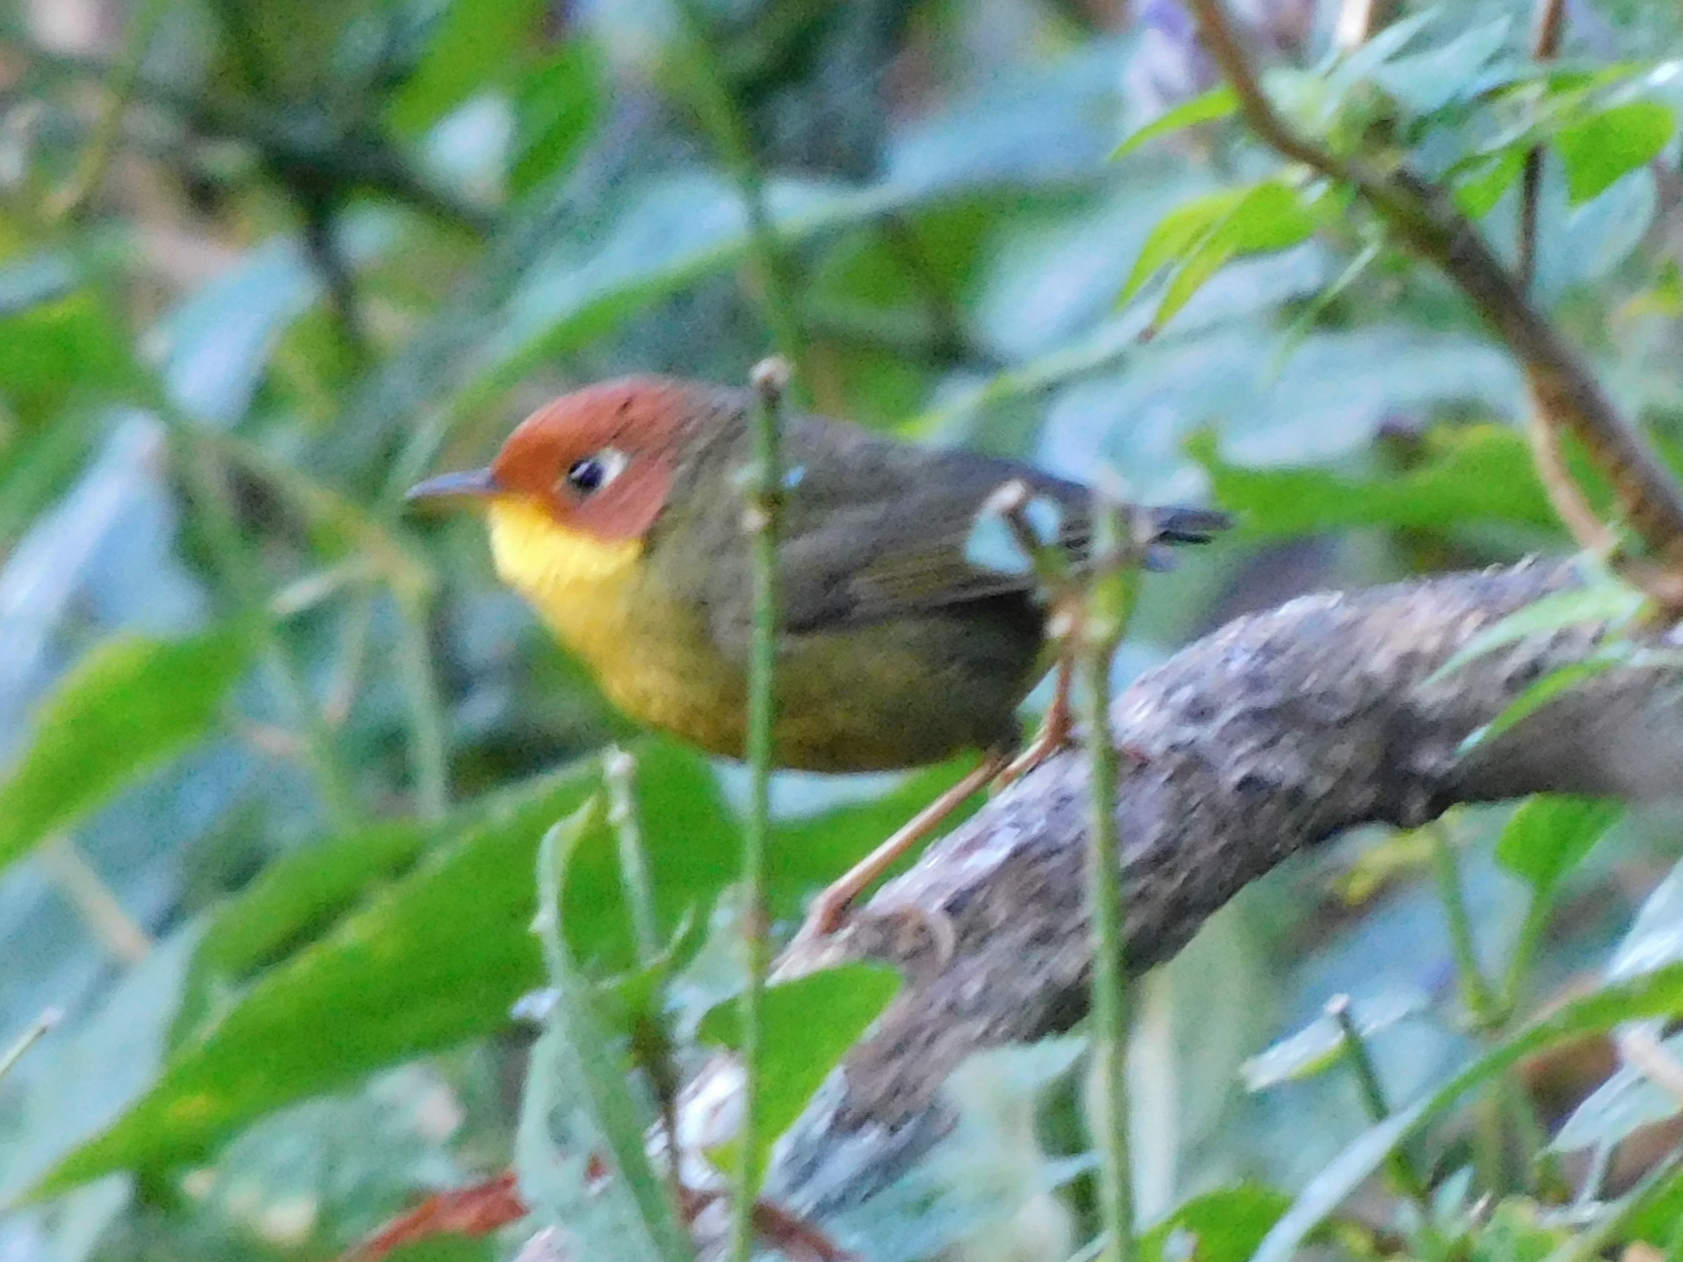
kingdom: Animalia
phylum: Chordata
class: Aves
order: Passeriformes
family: Cettiidae
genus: Cettia
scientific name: Cettia castaneocoronata
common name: Chestnut-headed tesia
